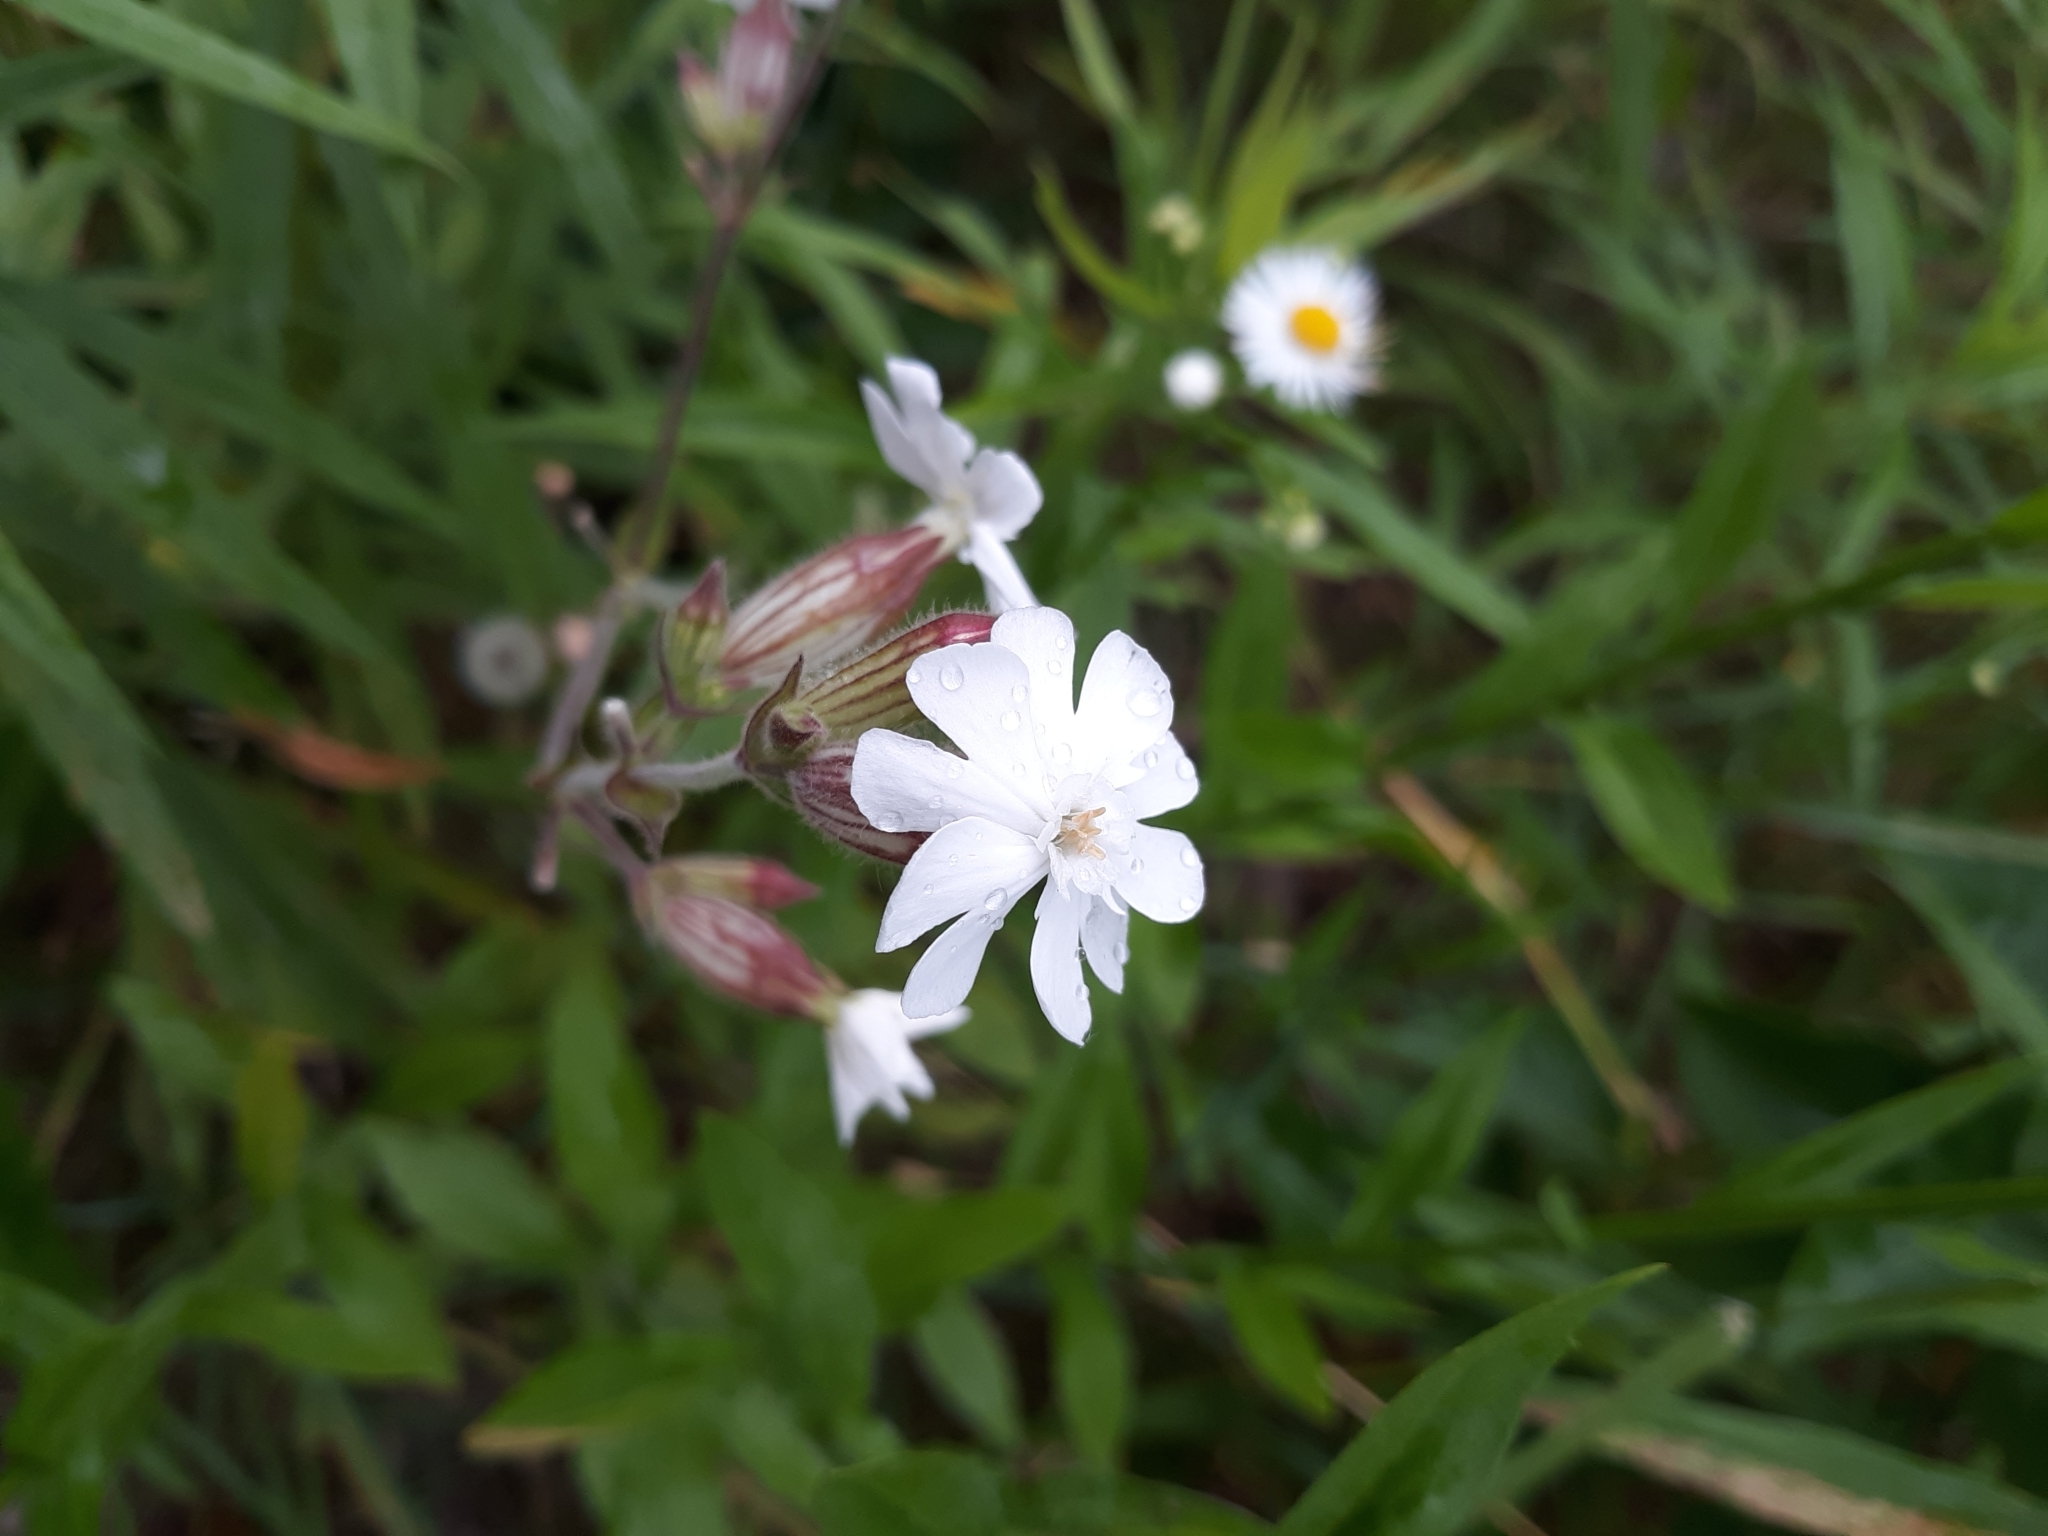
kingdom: Plantae
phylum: Tracheophyta
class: Magnoliopsida
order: Caryophyllales
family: Caryophyllaceae
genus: Silene
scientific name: Silene latifolia
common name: White campion
